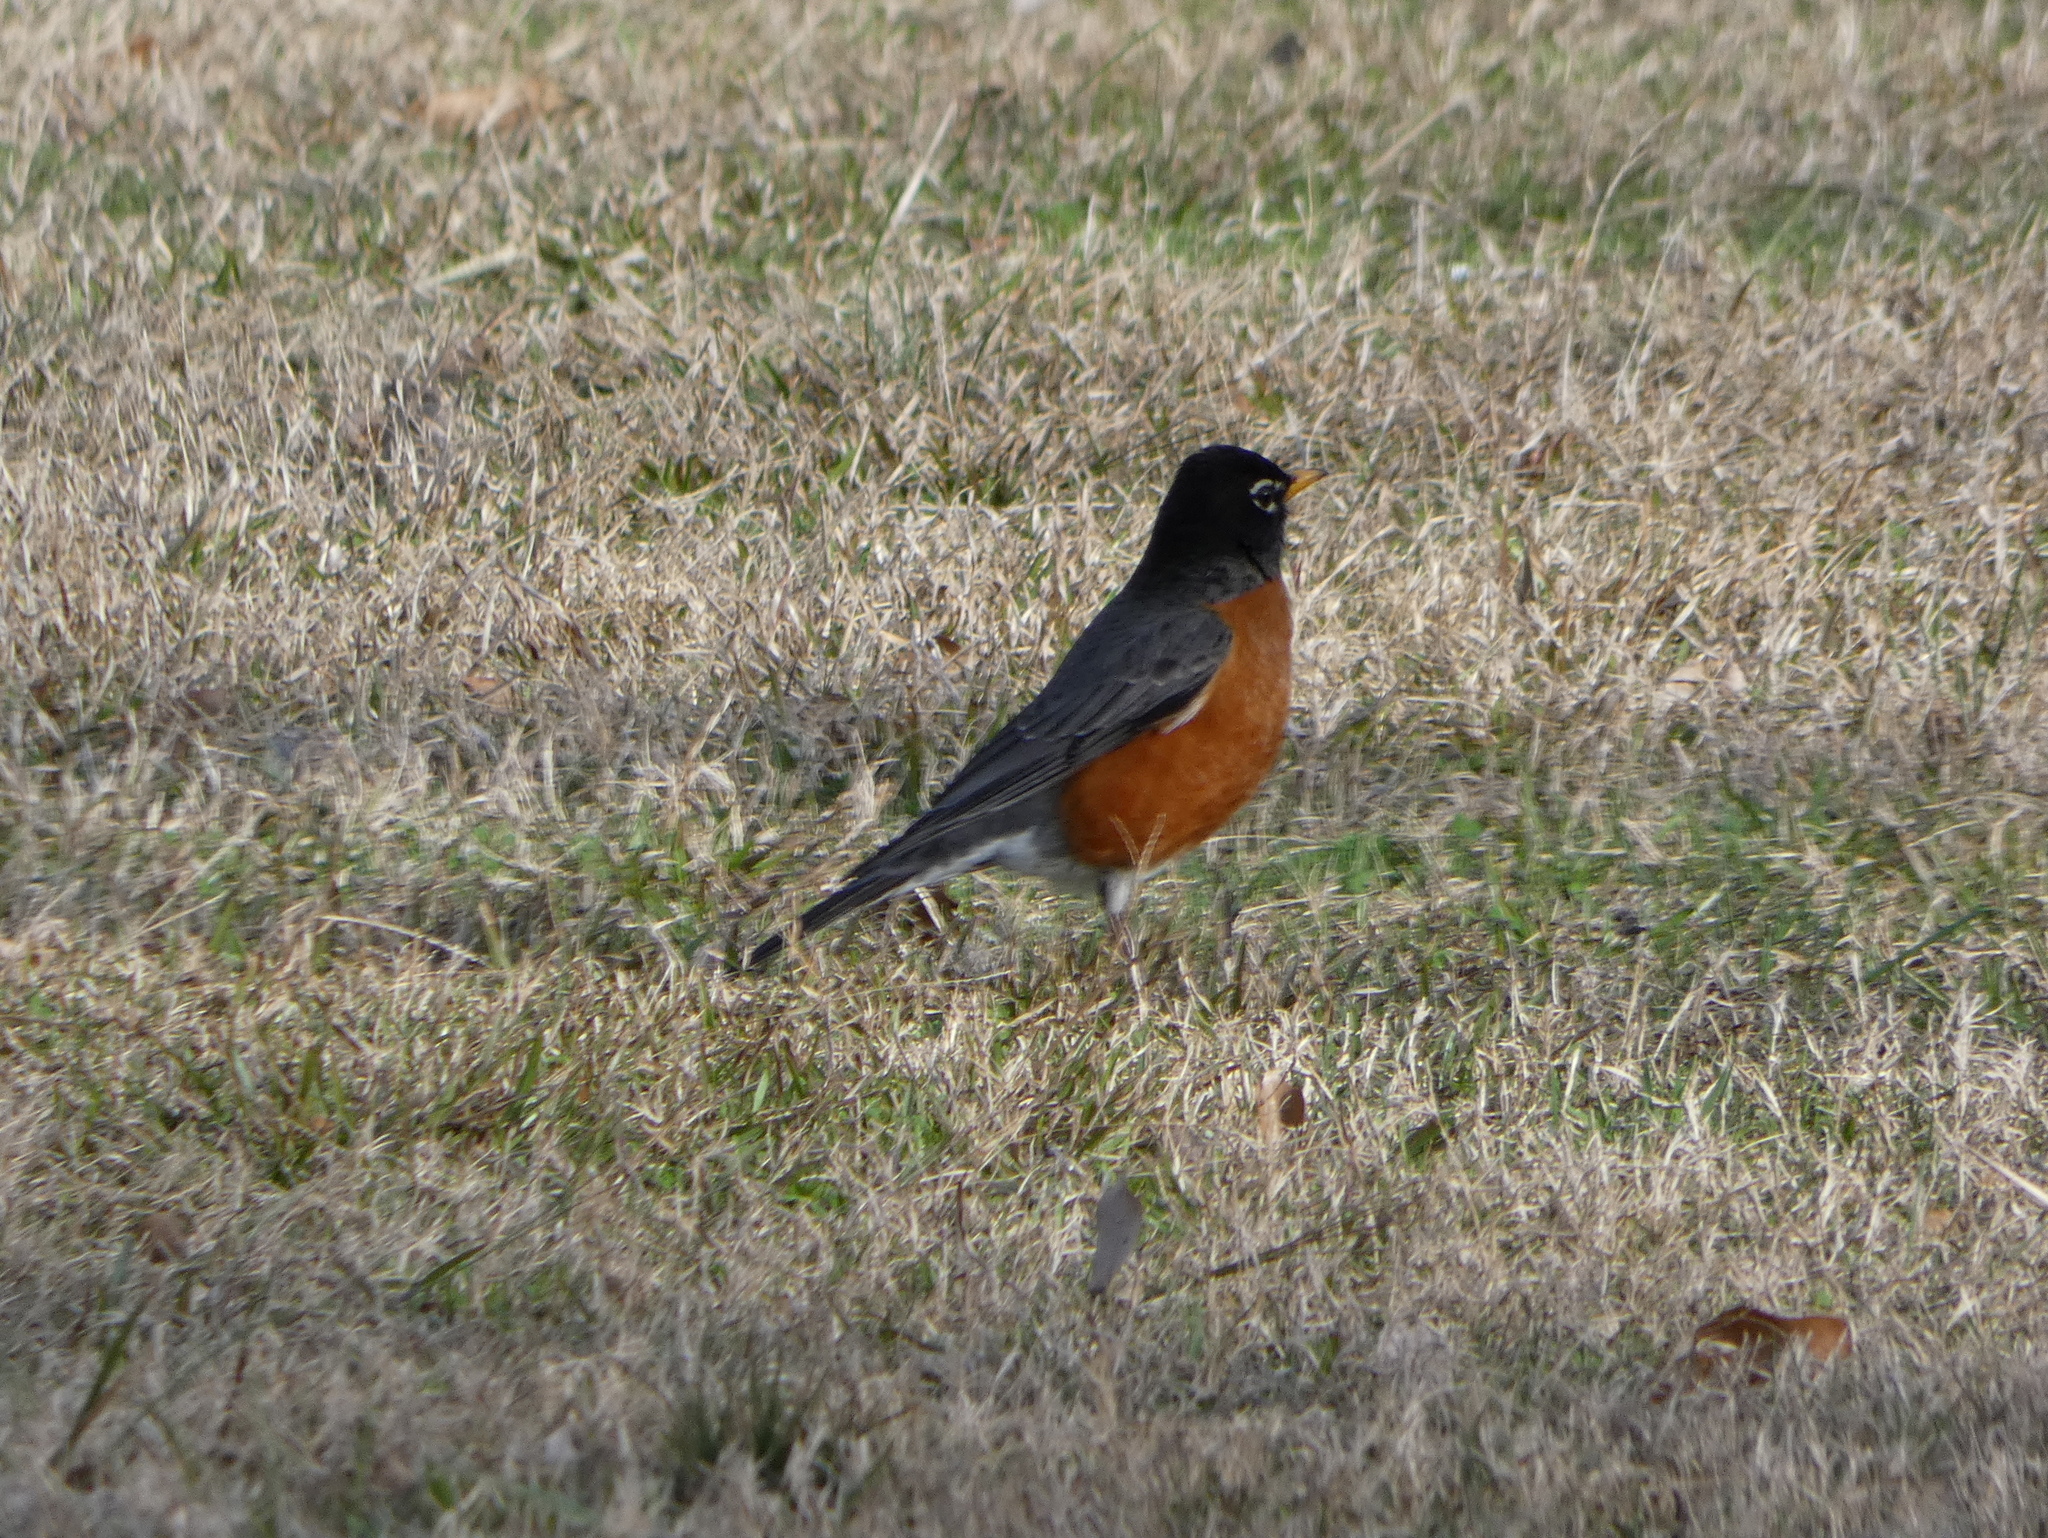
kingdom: Animalia
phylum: Chordata
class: Aves
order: Passeriformes
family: Turdidae
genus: Turdus
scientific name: Turdus migratorius
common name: American robin
